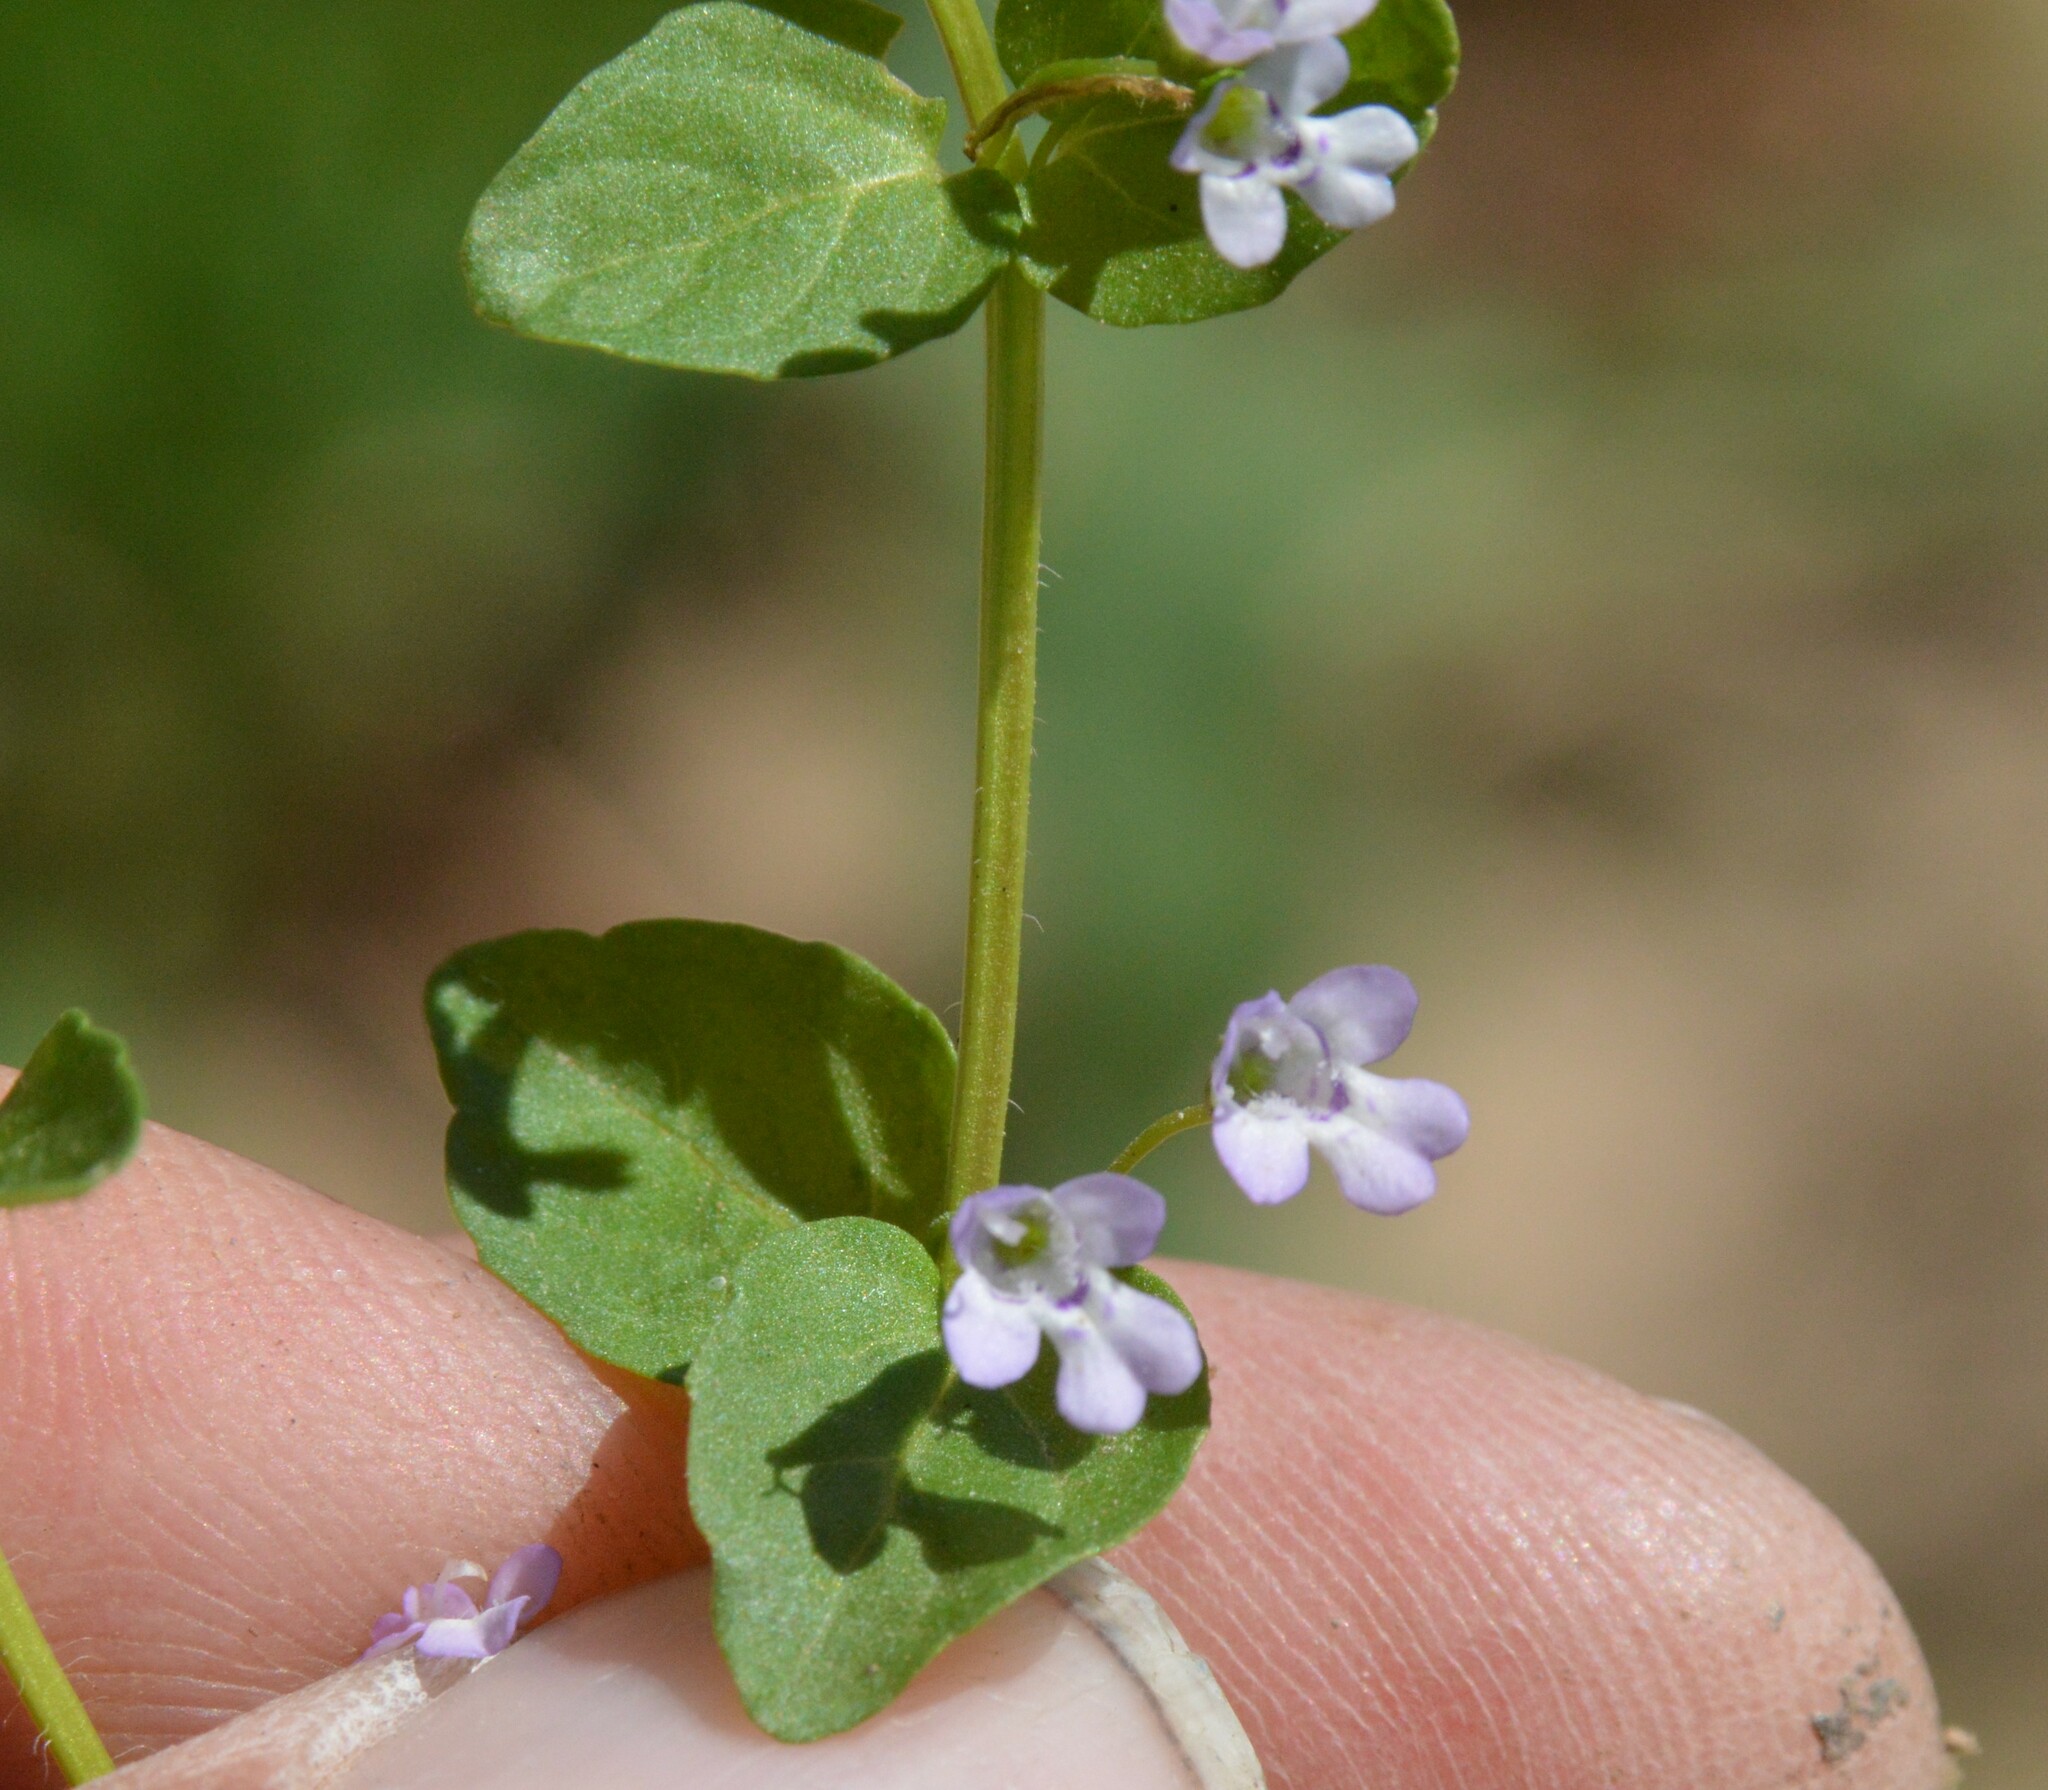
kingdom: Plantae
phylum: Tracheophyta
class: Magnoliopsida
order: Lamiales
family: Lamiaceae
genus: Clinopodium
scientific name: Clinopodium brownei
